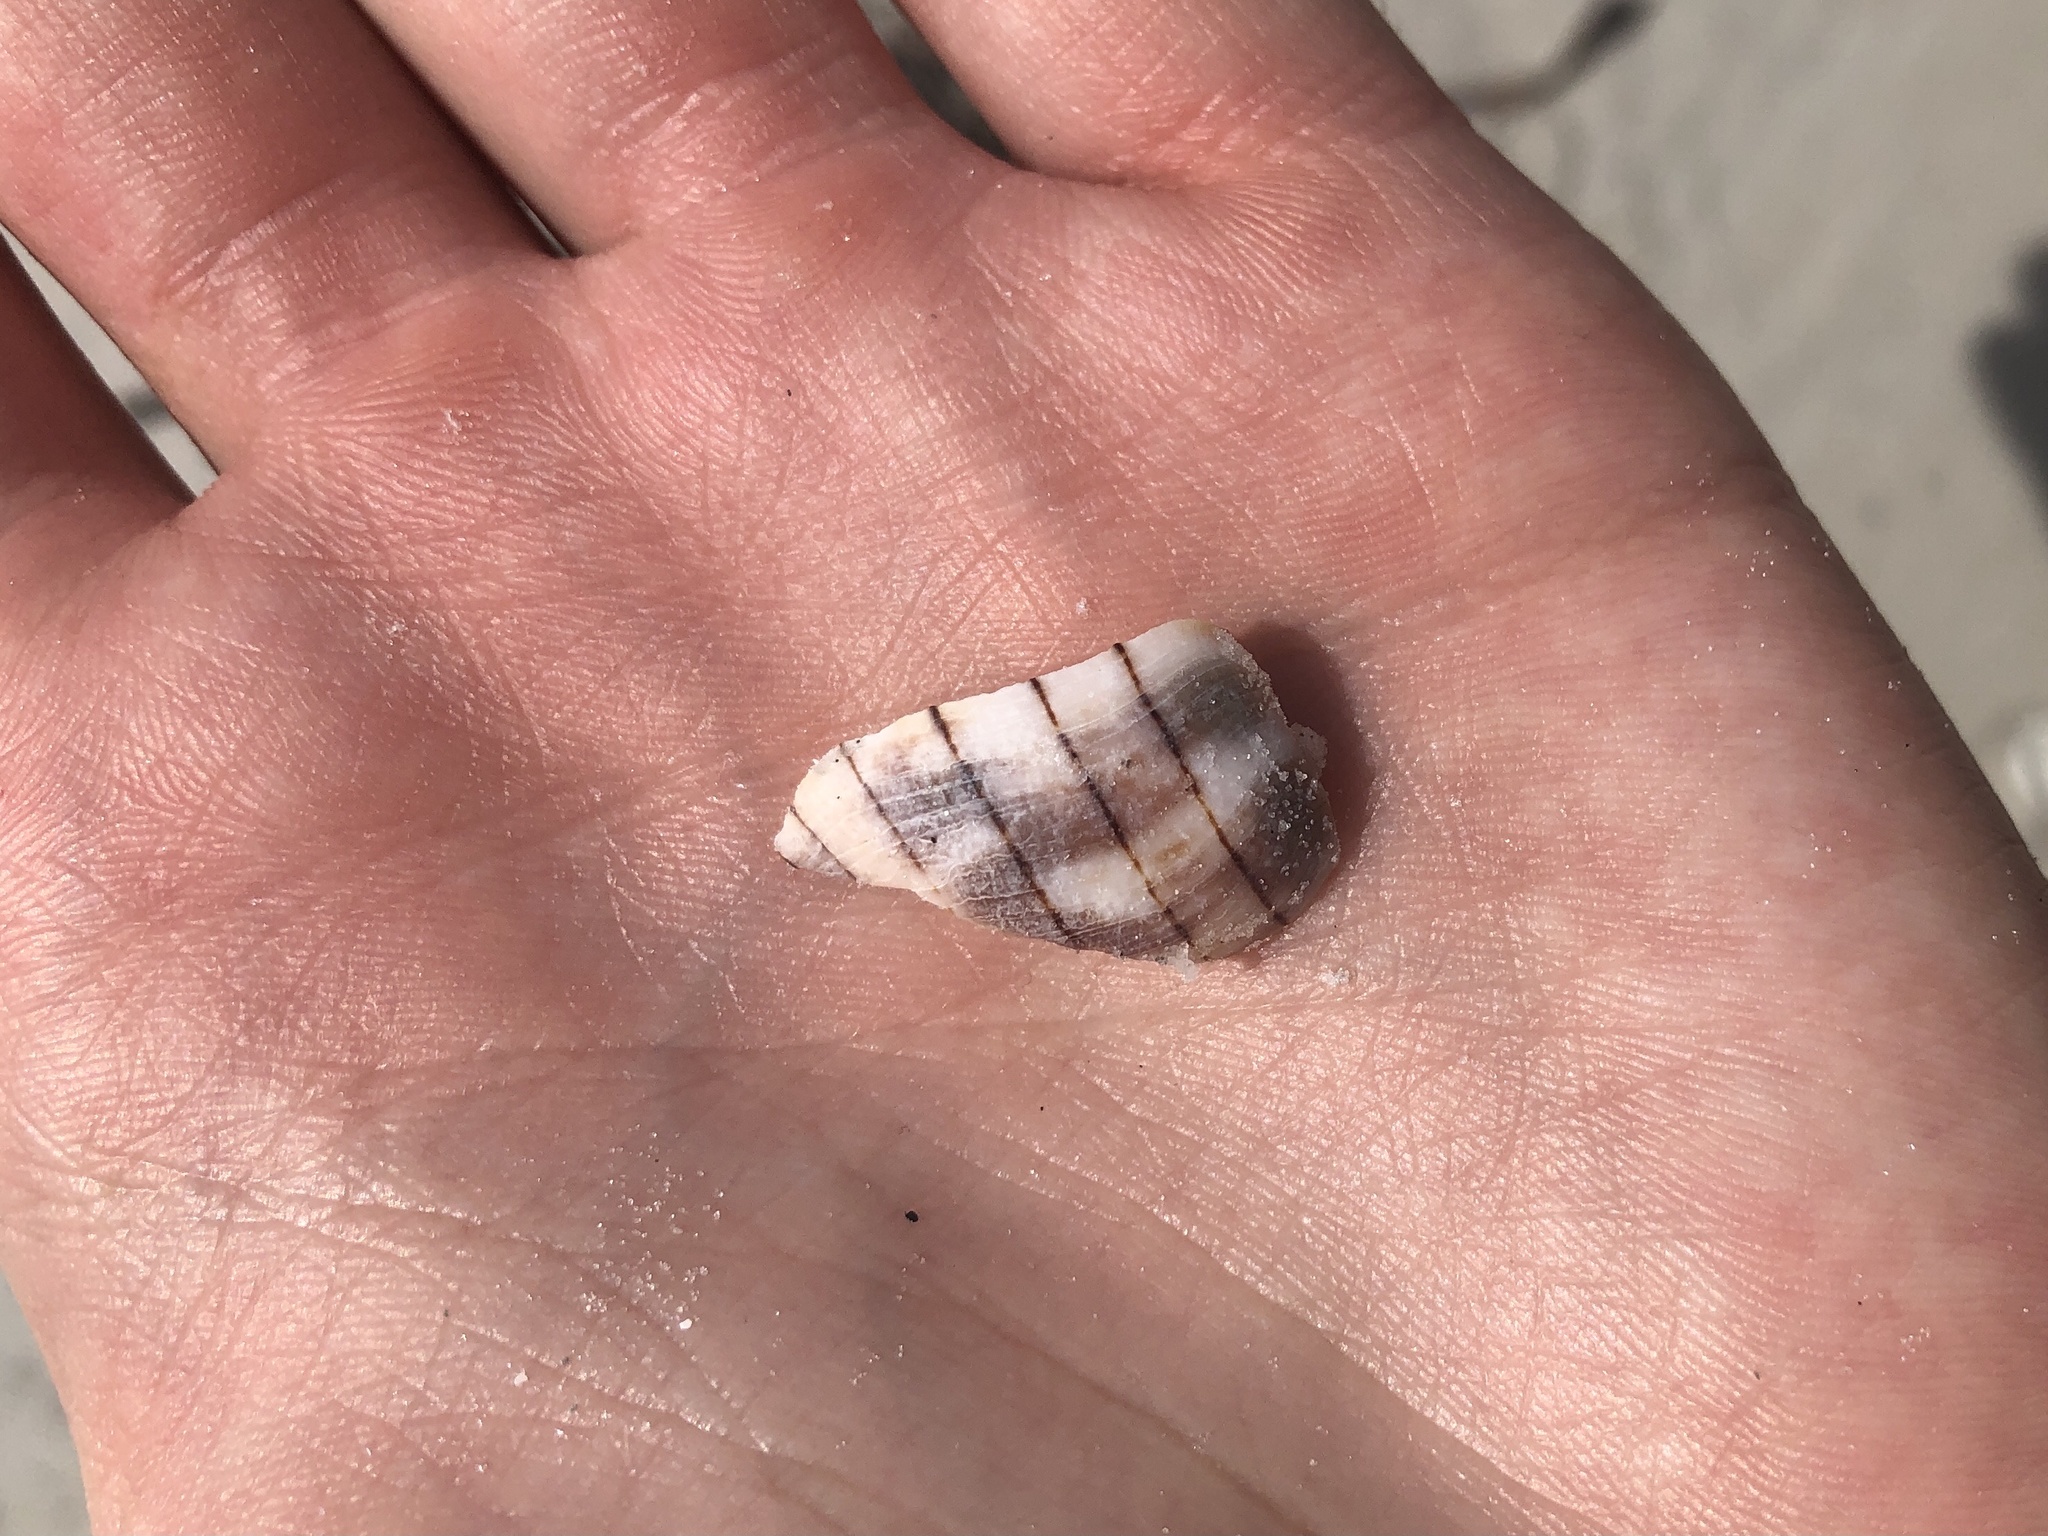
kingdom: Animalia
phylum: Mollusca
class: Gastropoda
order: Neogastropoda
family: Fasciolariidae
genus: Cinctura
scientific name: Cinctura hunteria
